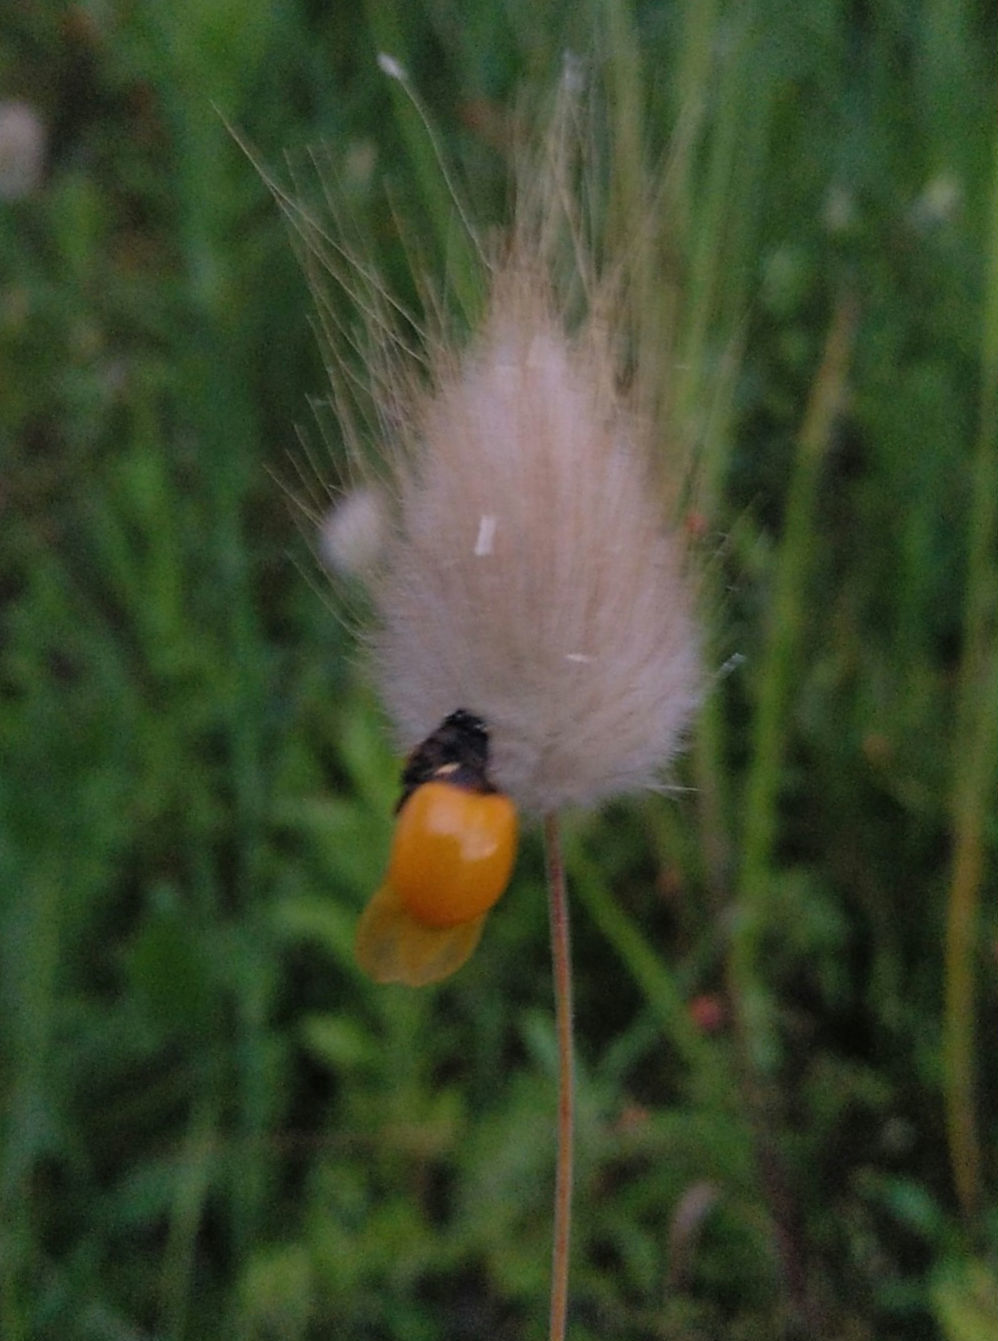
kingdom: Animalia
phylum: Arthropoda
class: Insecta
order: Coleoptera
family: Coccinellidae
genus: Coccinella
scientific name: Coccinella septempunctata
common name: Sevenspotted lady beetle
